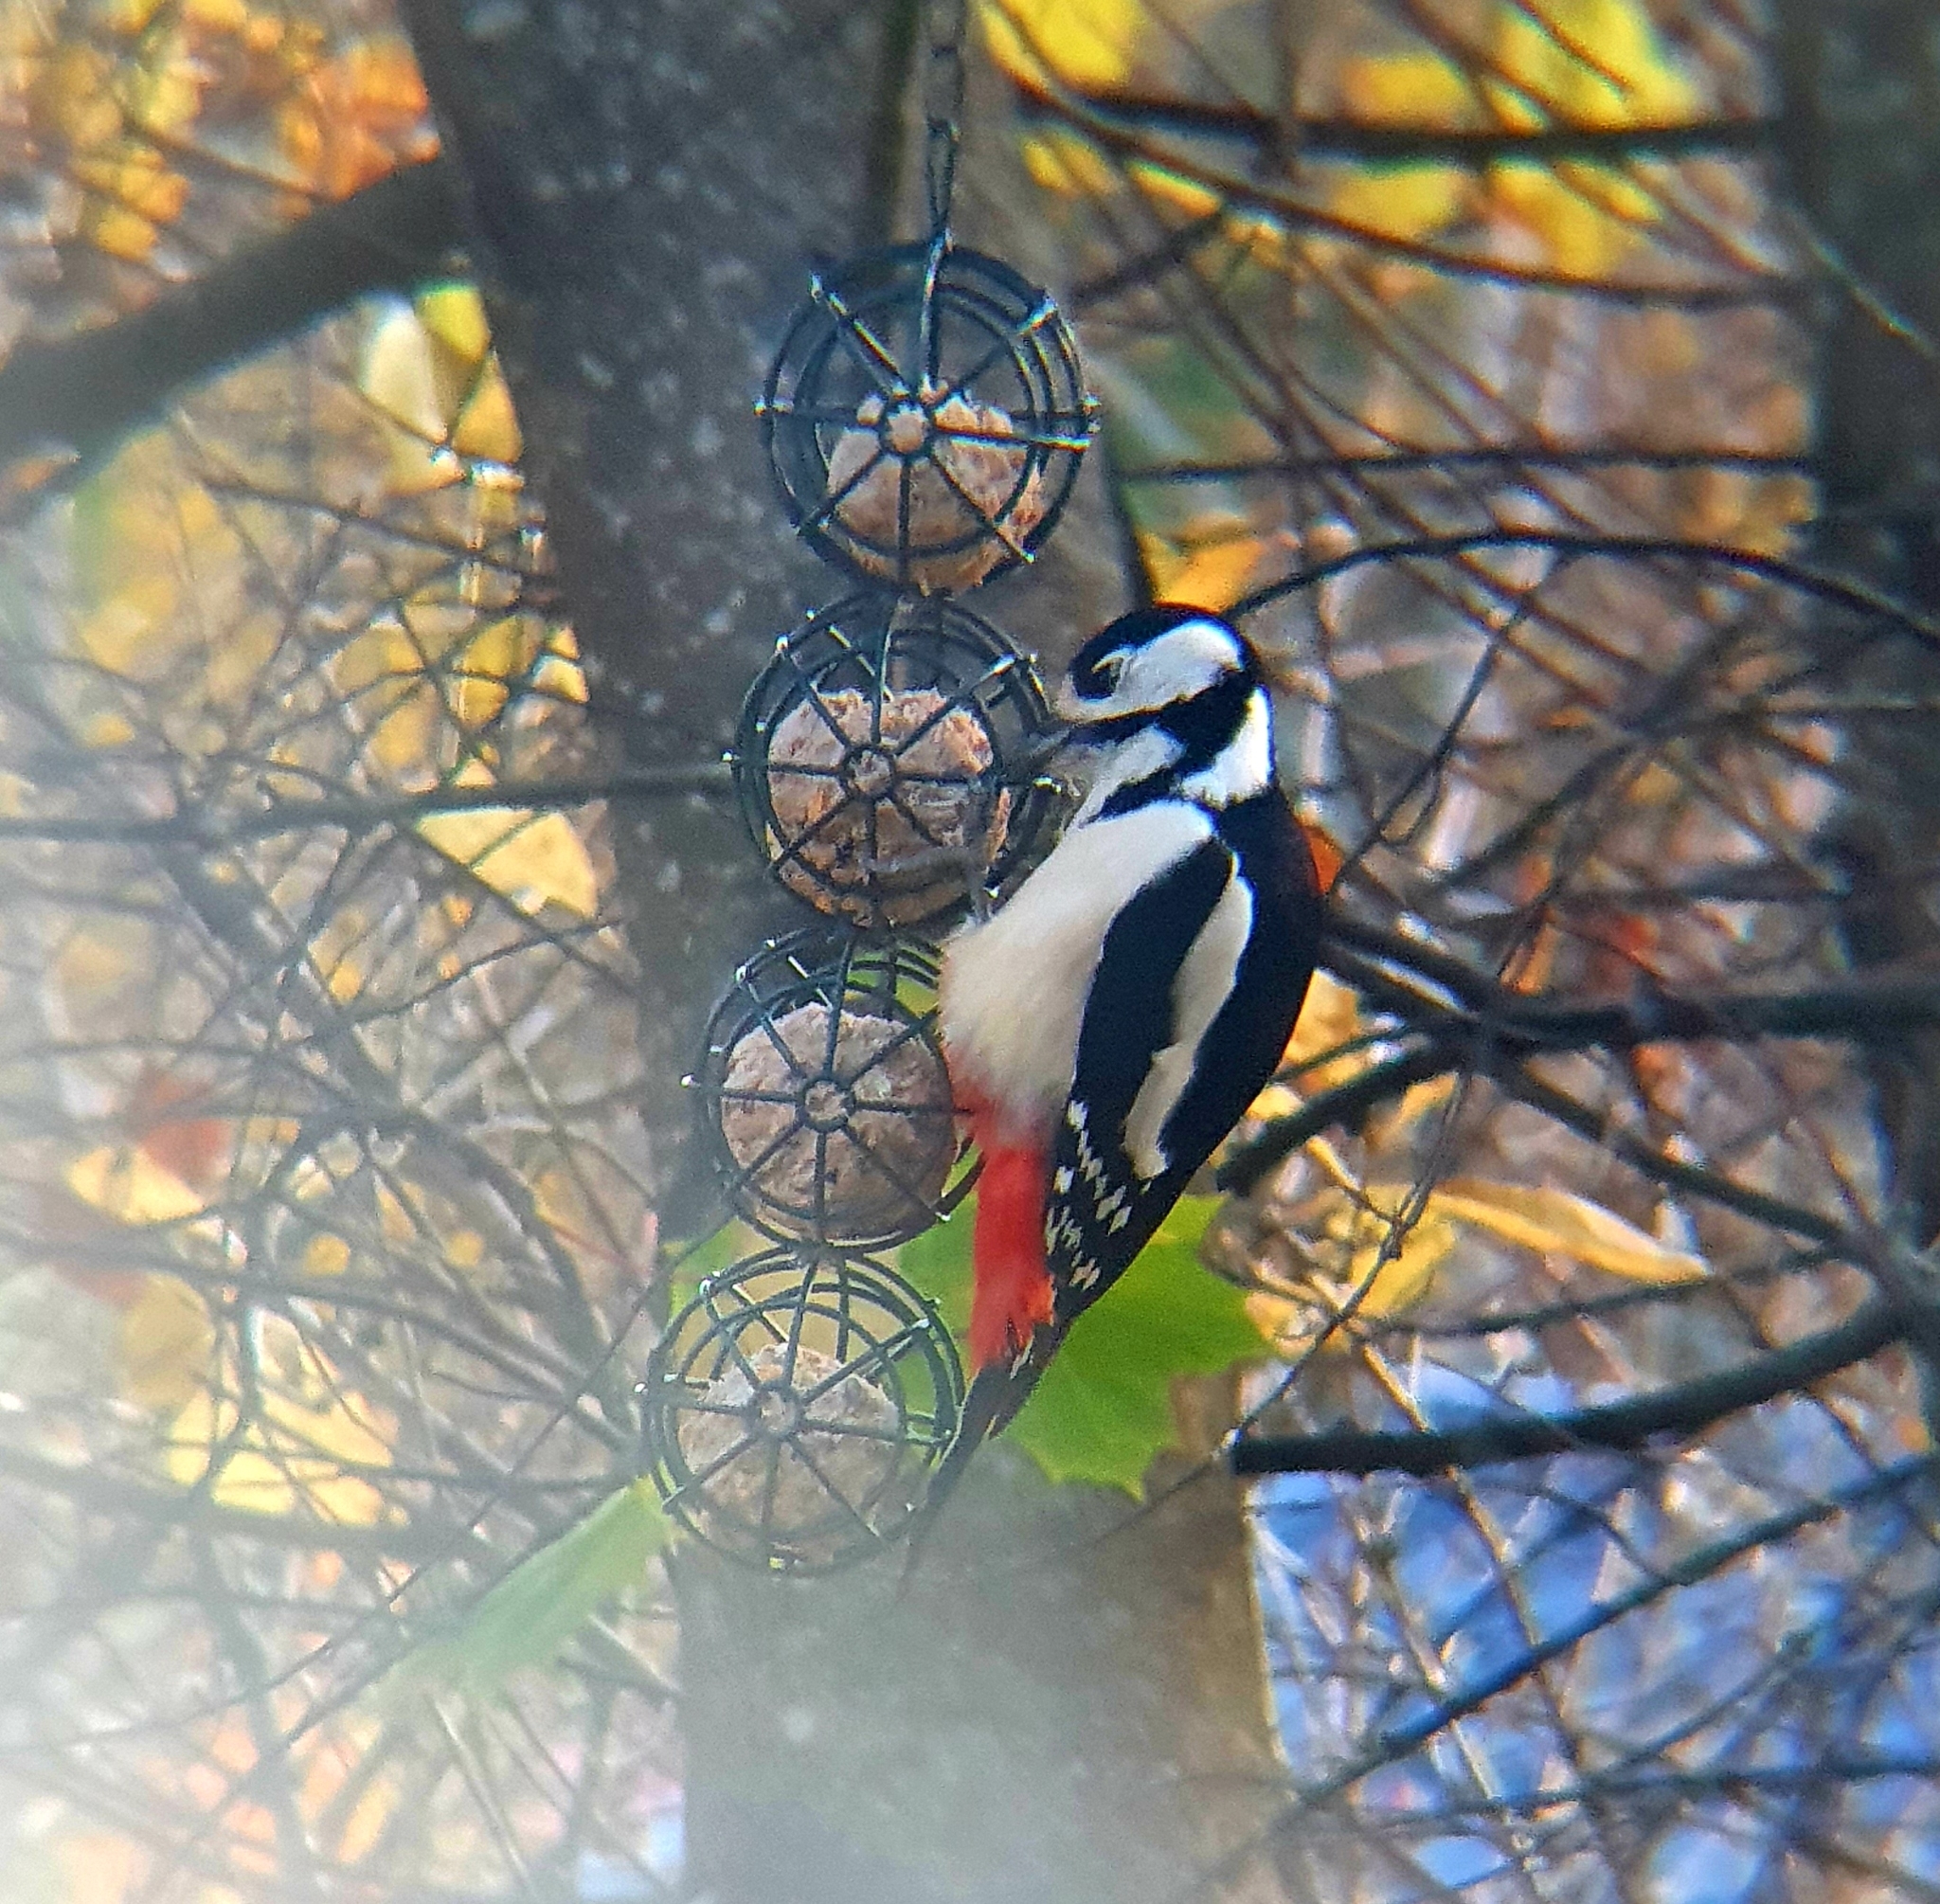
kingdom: Animalia
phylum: Chordata
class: Aves
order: Piciformes
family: Picidae
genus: Dendrocopos
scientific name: Dendrocopos major
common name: Great spotted woodpecker
